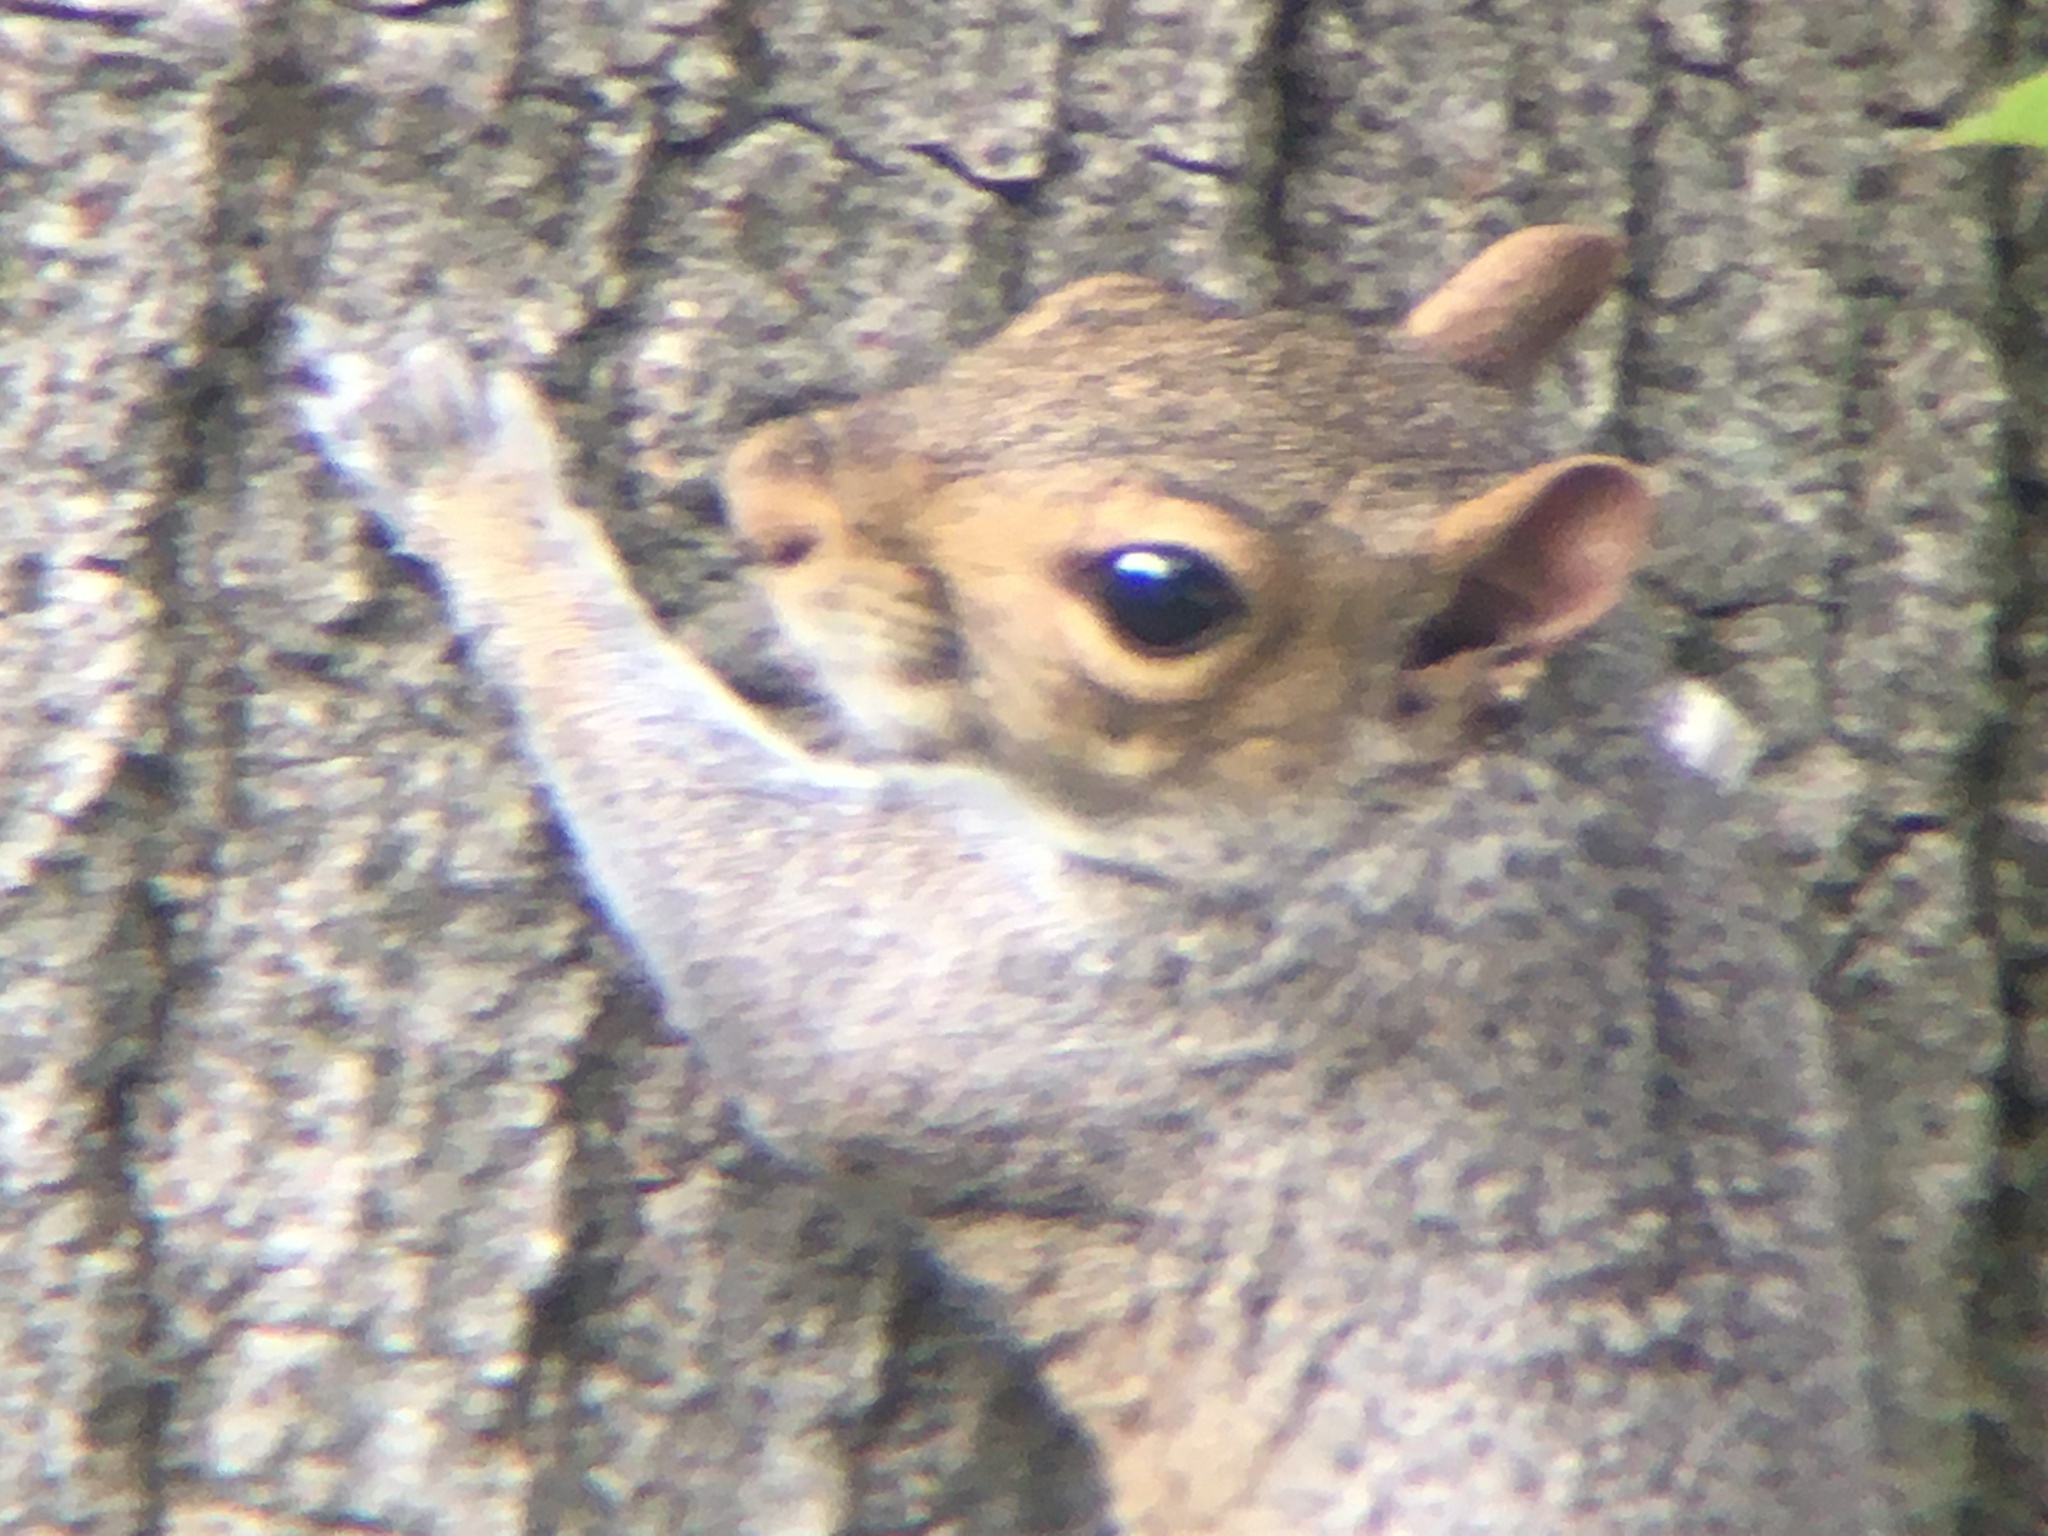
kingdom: Animalia
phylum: Chordata
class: Mammalia
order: Rodentia
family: Sciuridae
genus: Sciurus
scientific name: Sciurus carolinensis
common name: Eastern gray squirrel
